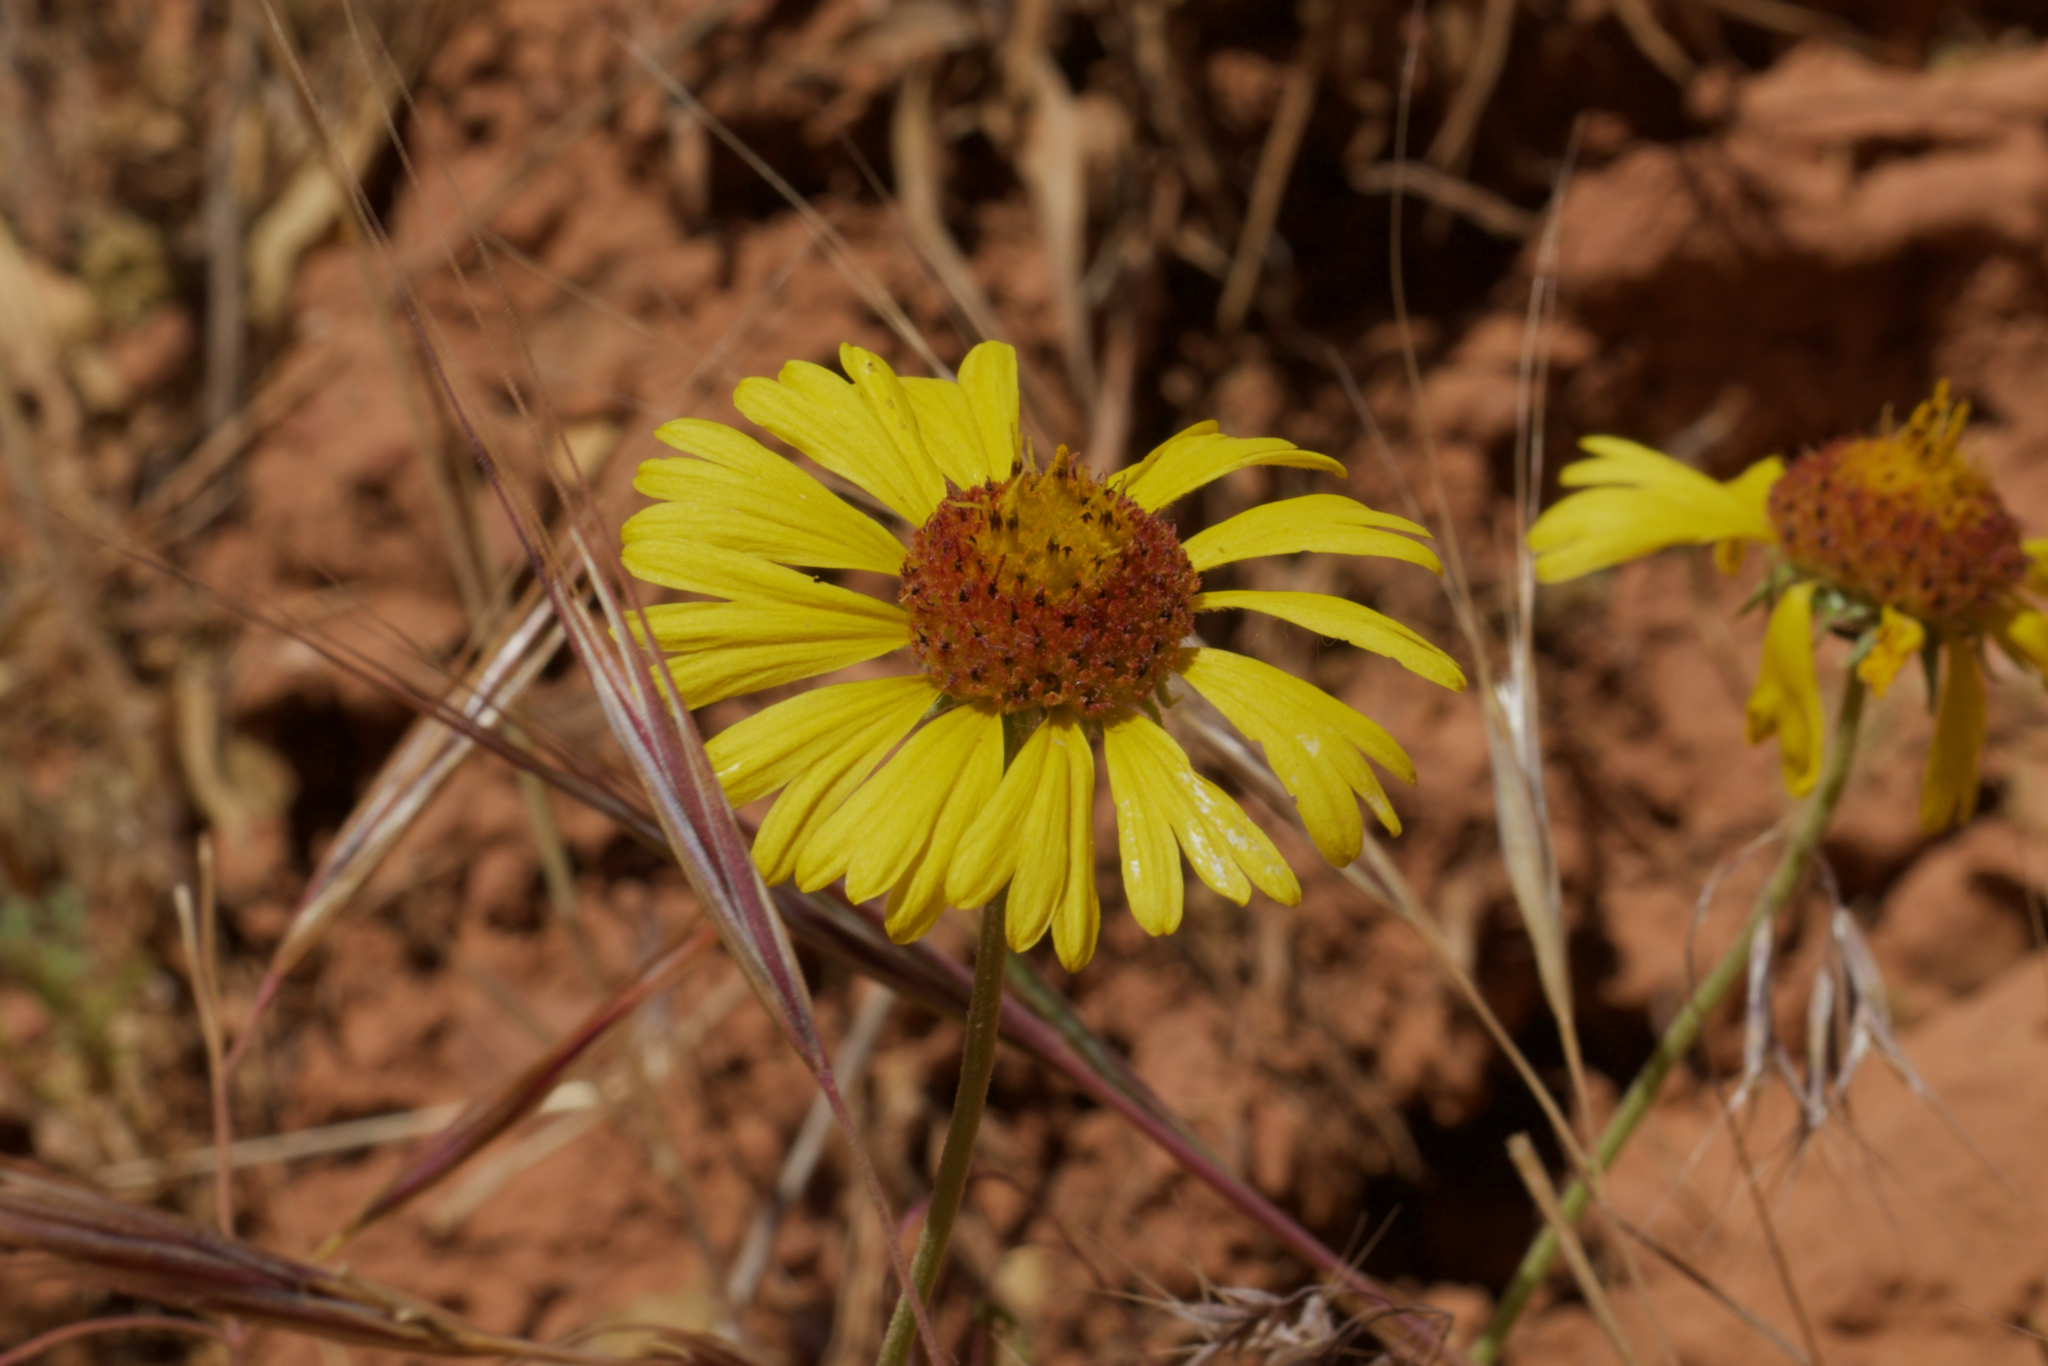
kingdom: Plantae
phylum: Tracheophyta
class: Magnoliopsida
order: Asterales
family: Asteraceae
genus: Gaillardia
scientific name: Gaillardia pinnatifida
